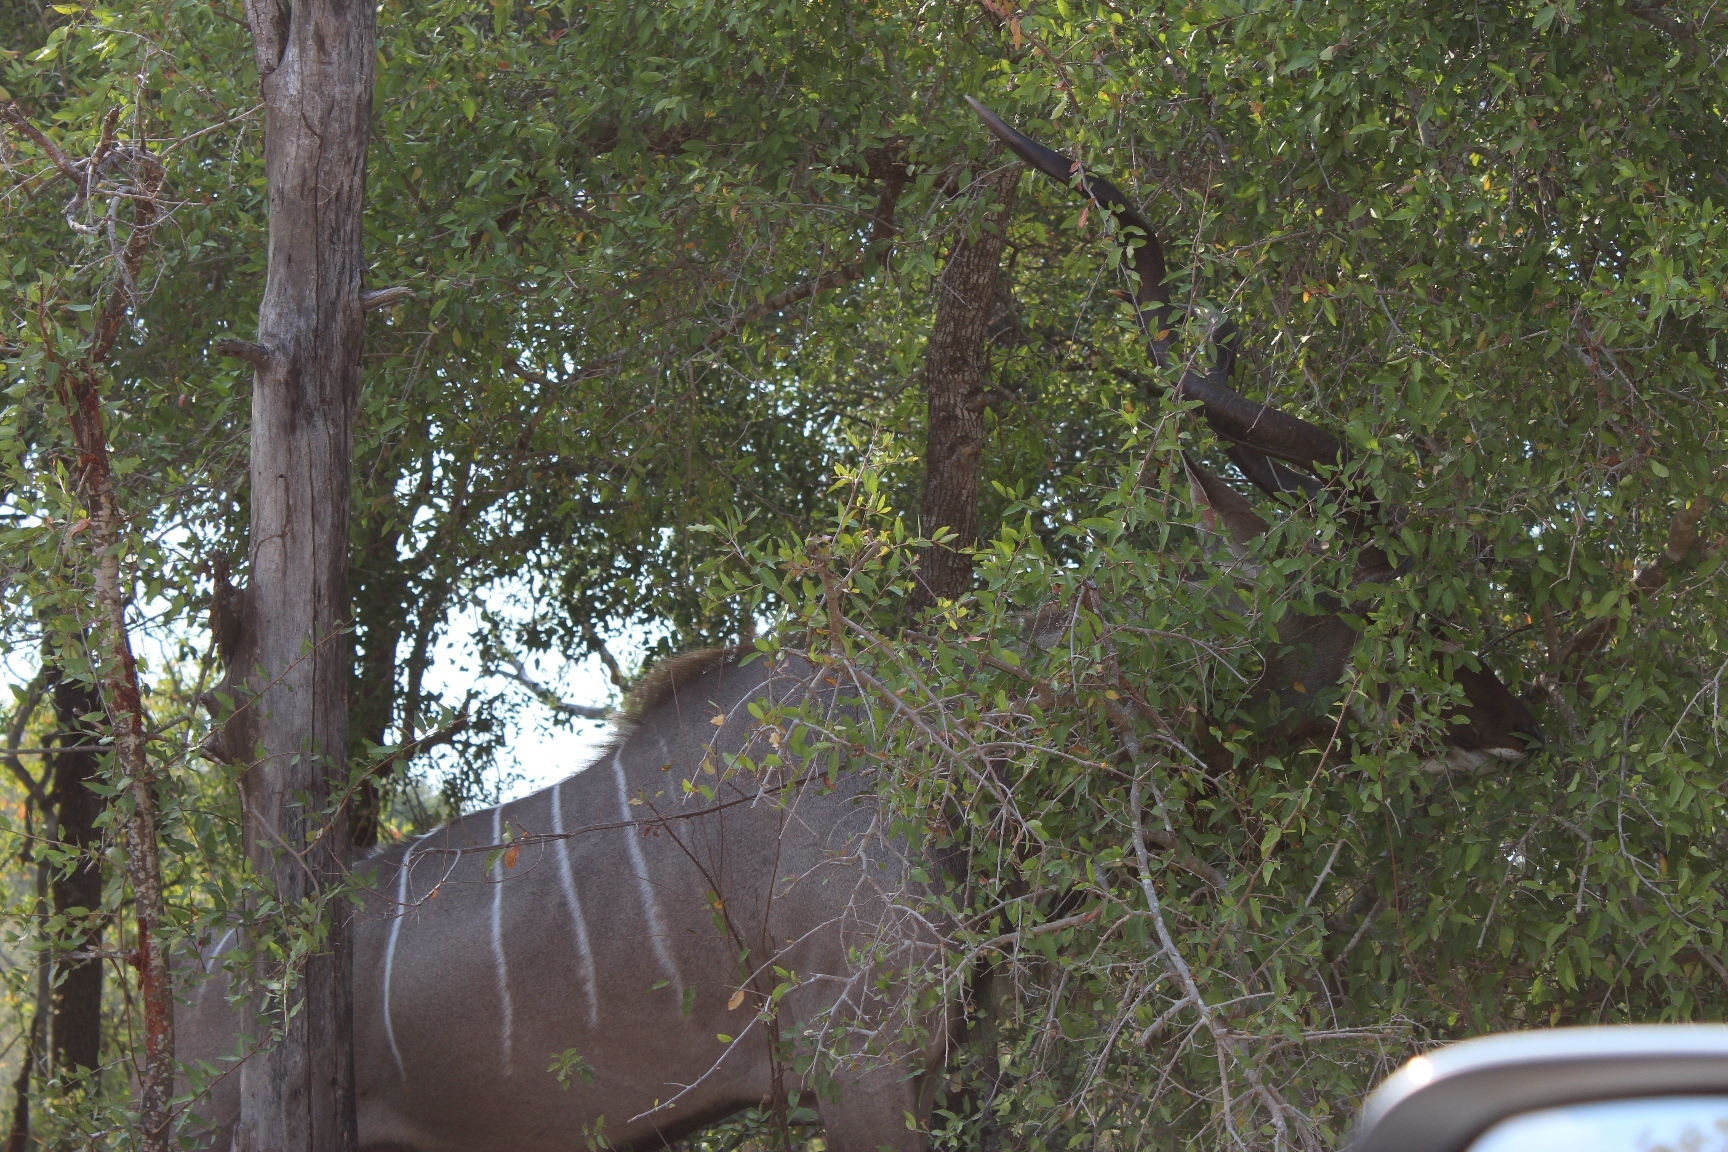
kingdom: Animalia
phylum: Chordata
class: Mammalia
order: Artiodactyla
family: Bovidae
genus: Tragelaphus
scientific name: Tragelaphus strepsiceros
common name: Greater kudu
